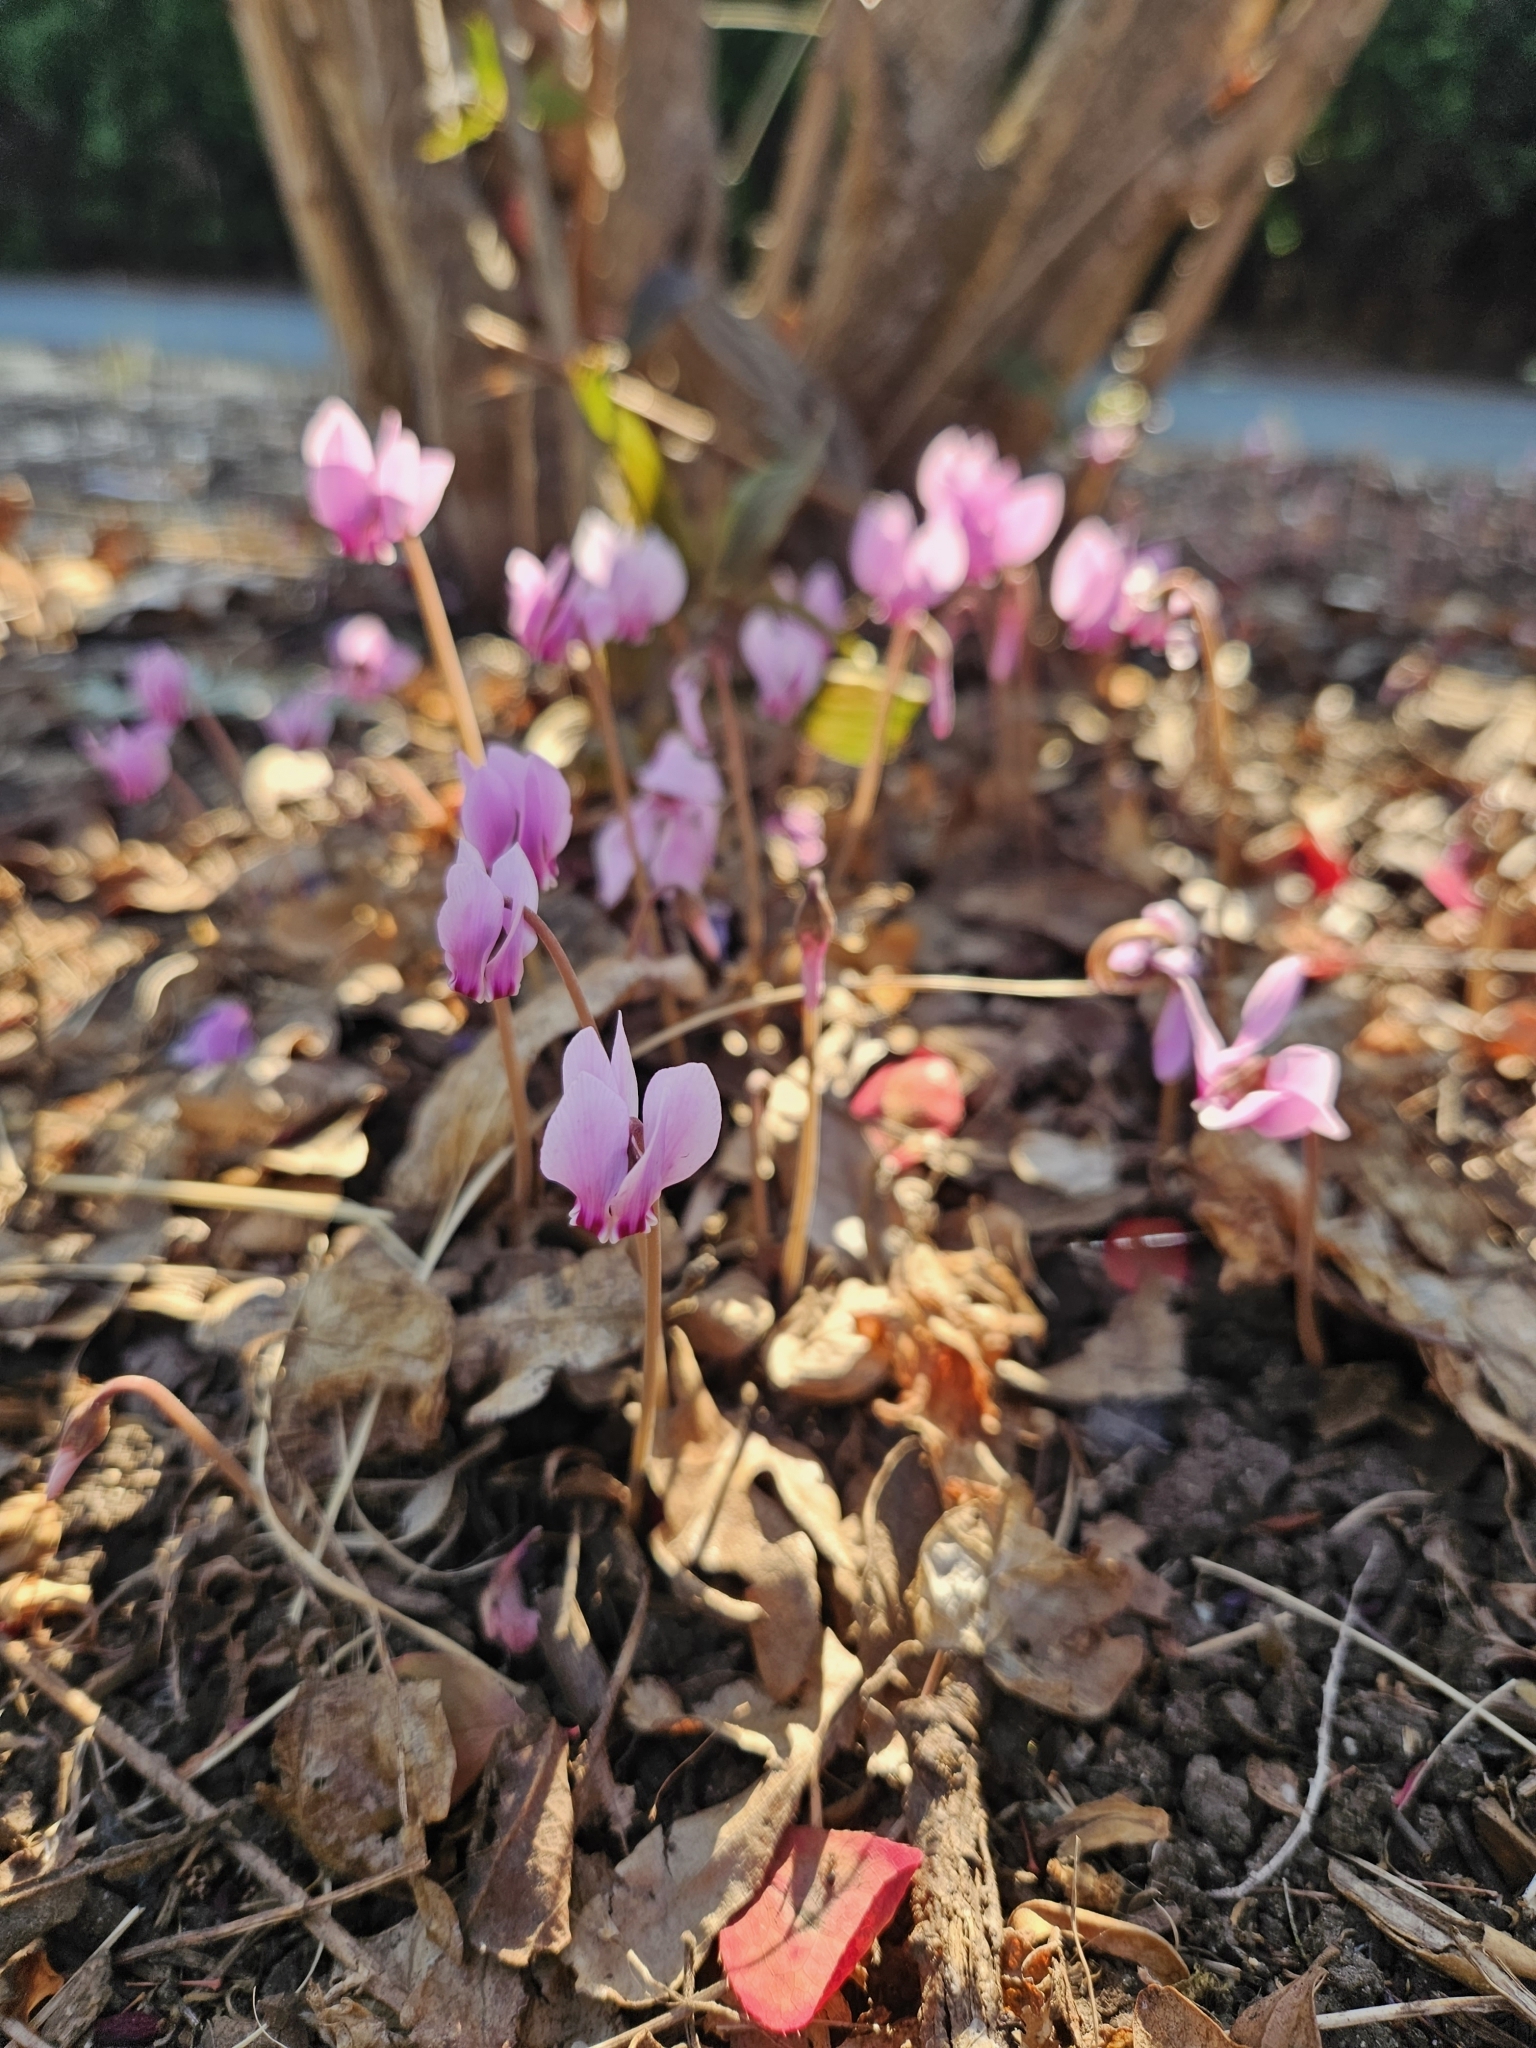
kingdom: Plantae
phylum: Tracheophyta
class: Magnoliopsida
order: Ericales
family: Primulaceae
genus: Cyclamen
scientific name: Cyclamen hederifolium
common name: Sowbread
